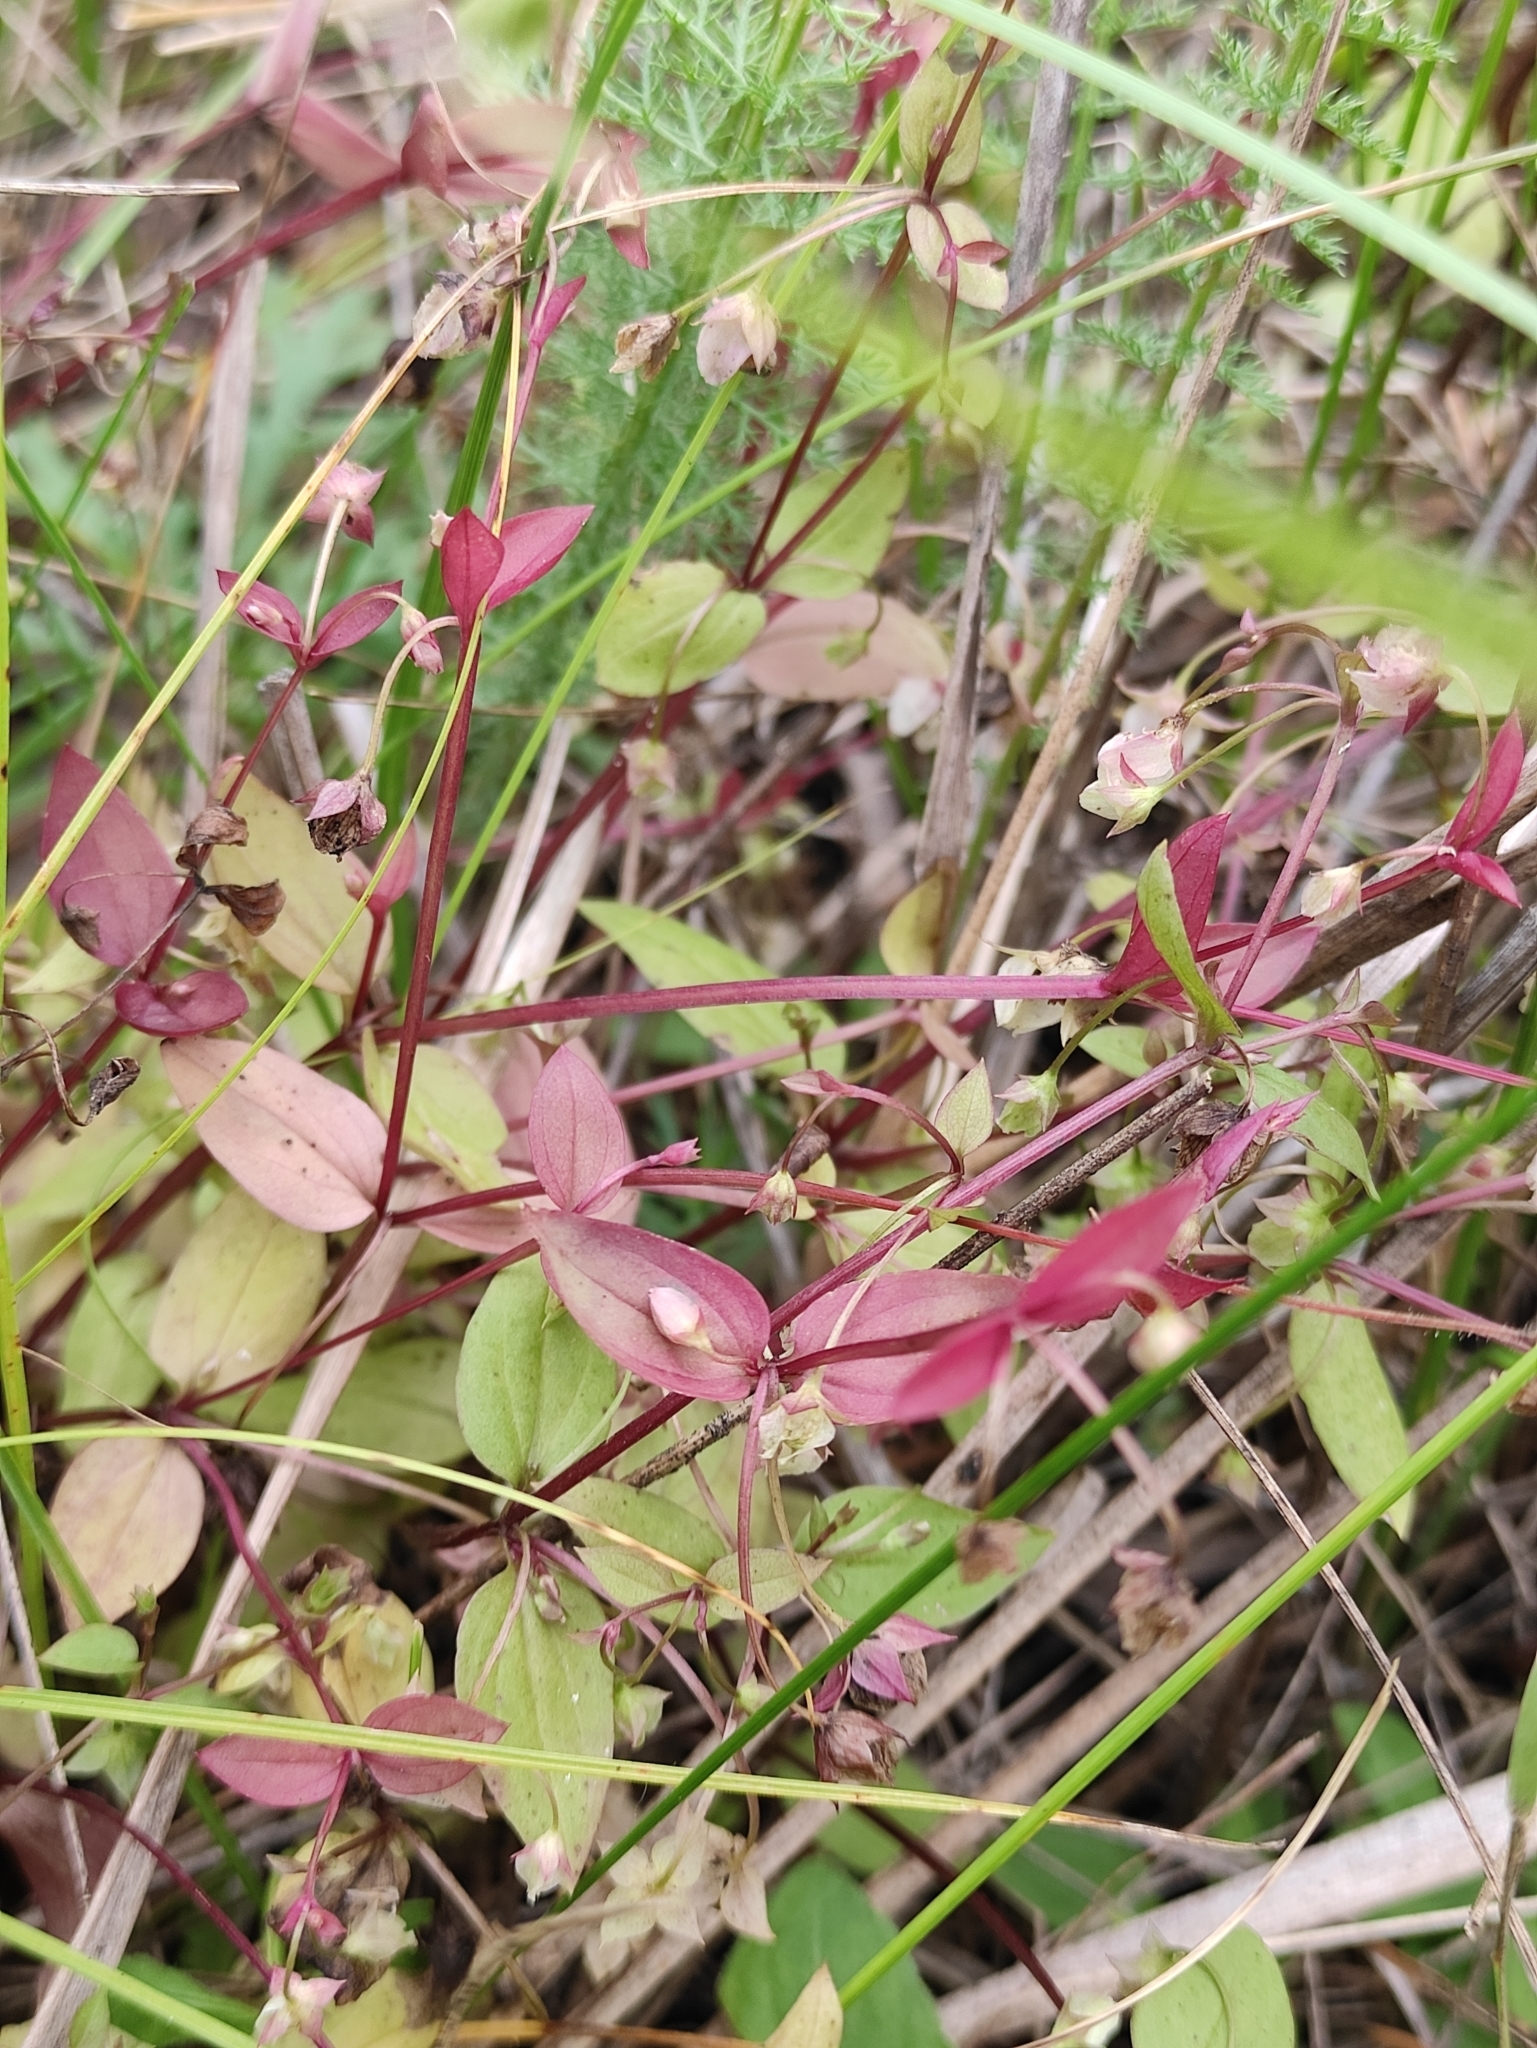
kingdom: Plantae
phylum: Tracheophyta
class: Magnoliopsida
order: Gentianales
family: Gentianaceae
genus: Swertia
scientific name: Swertia dichotoma
